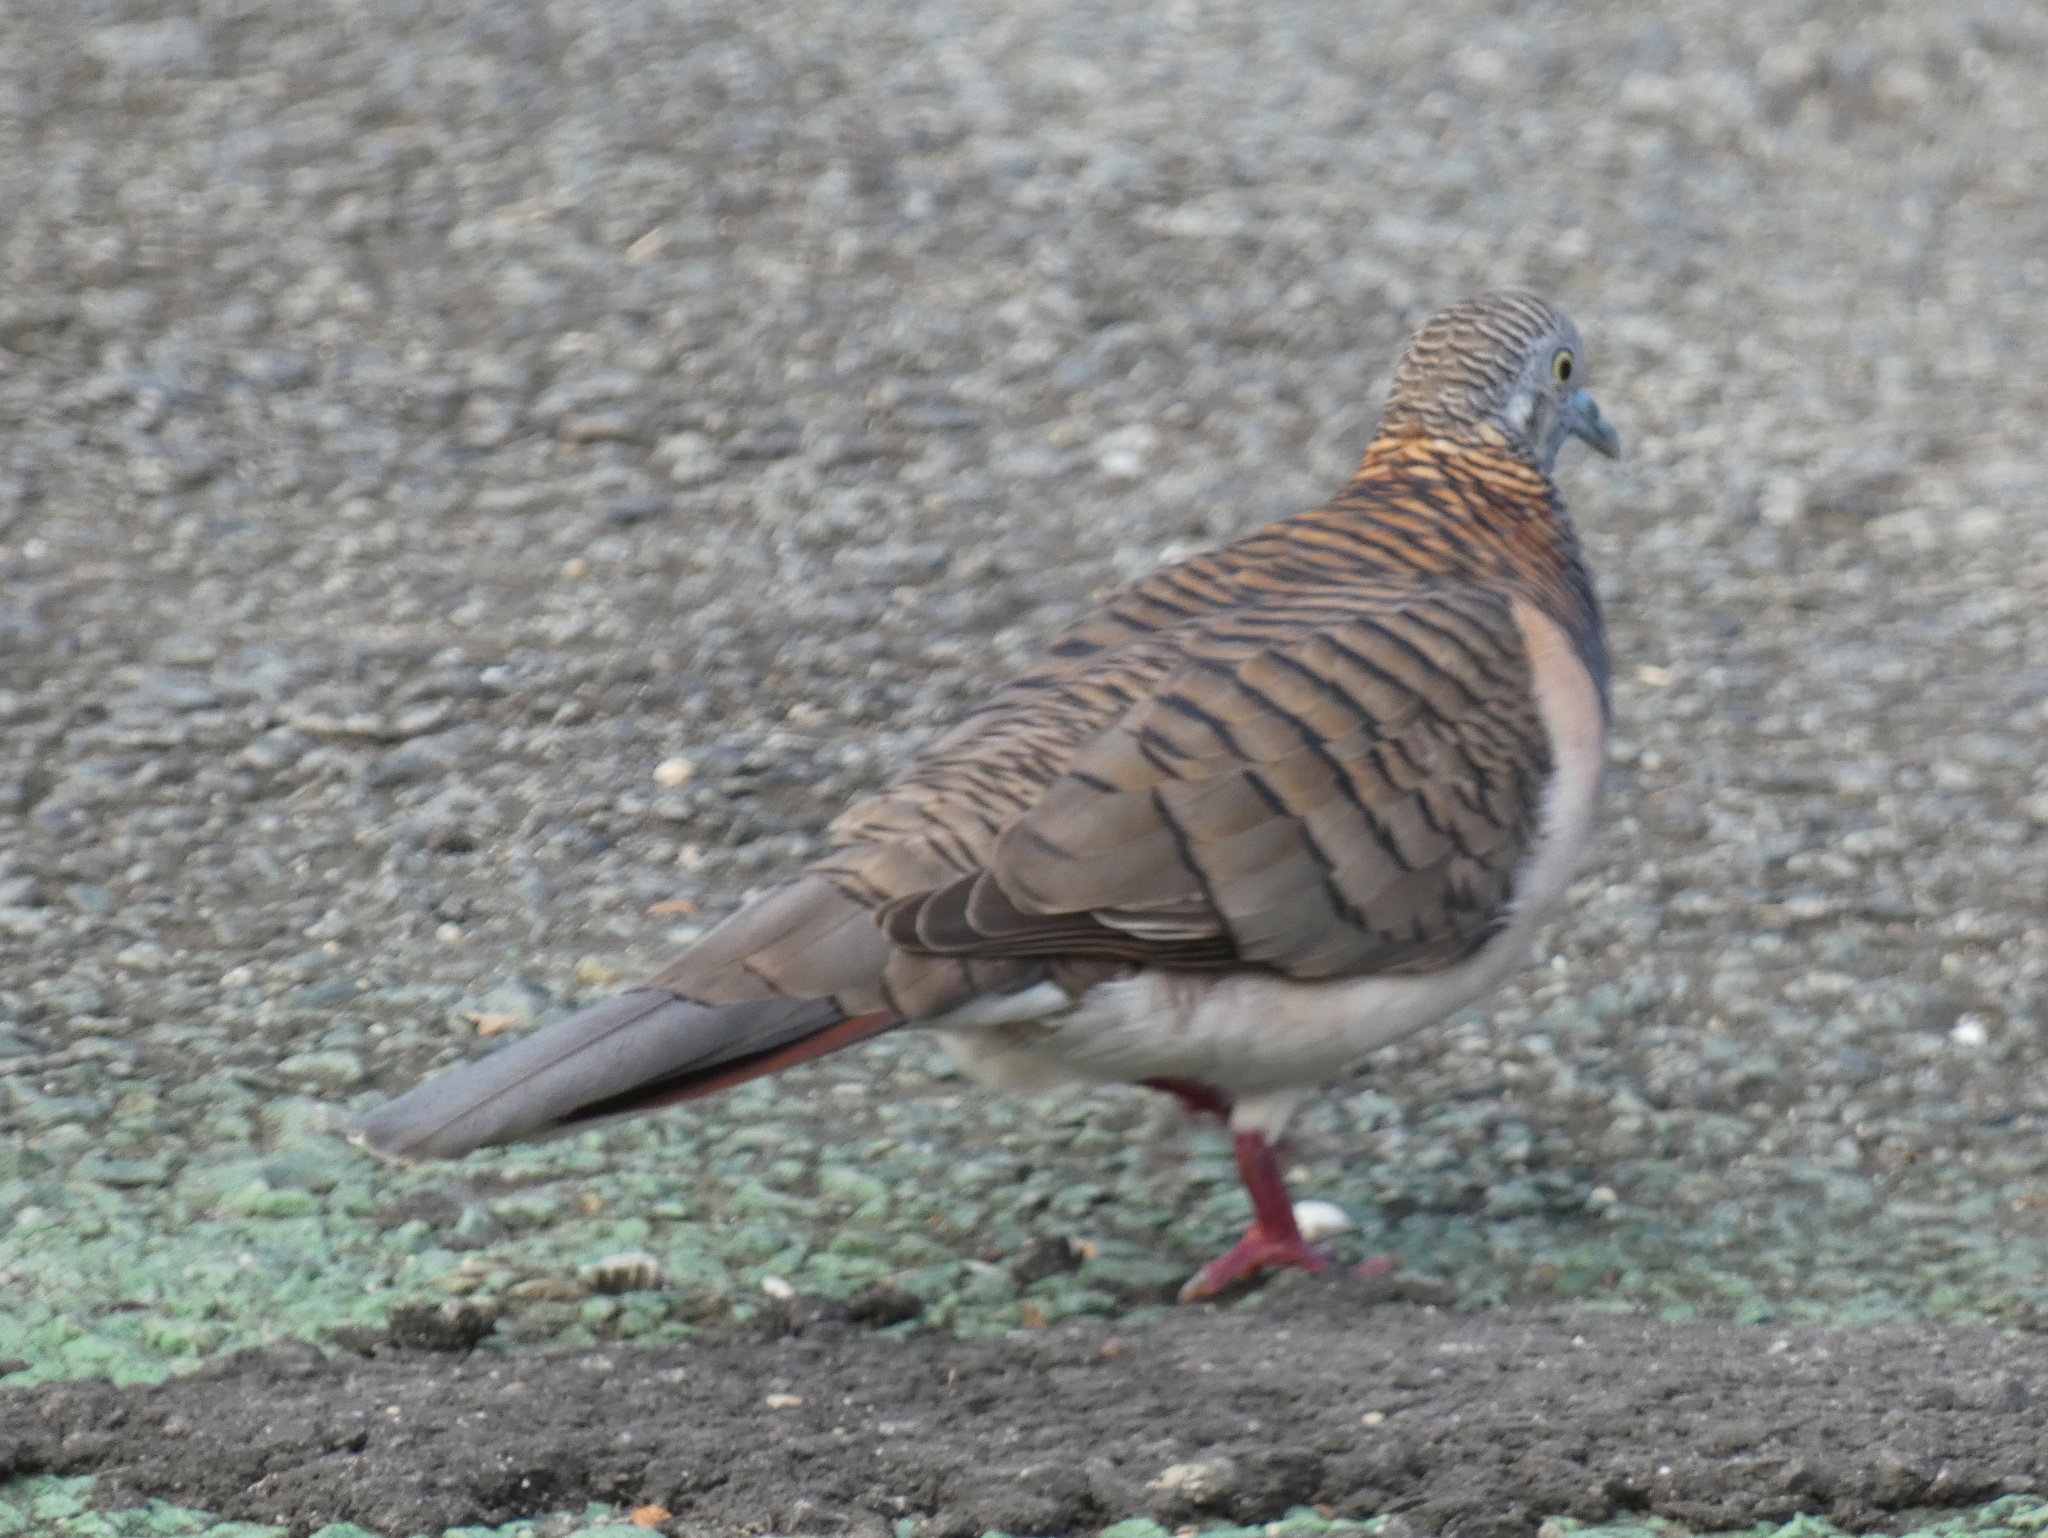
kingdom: Animalia
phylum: Chordata
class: Aves
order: Columbiformes
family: Columbidae
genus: Geopelia
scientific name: Geopelia humeralis
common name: Bar-shouldered dove
